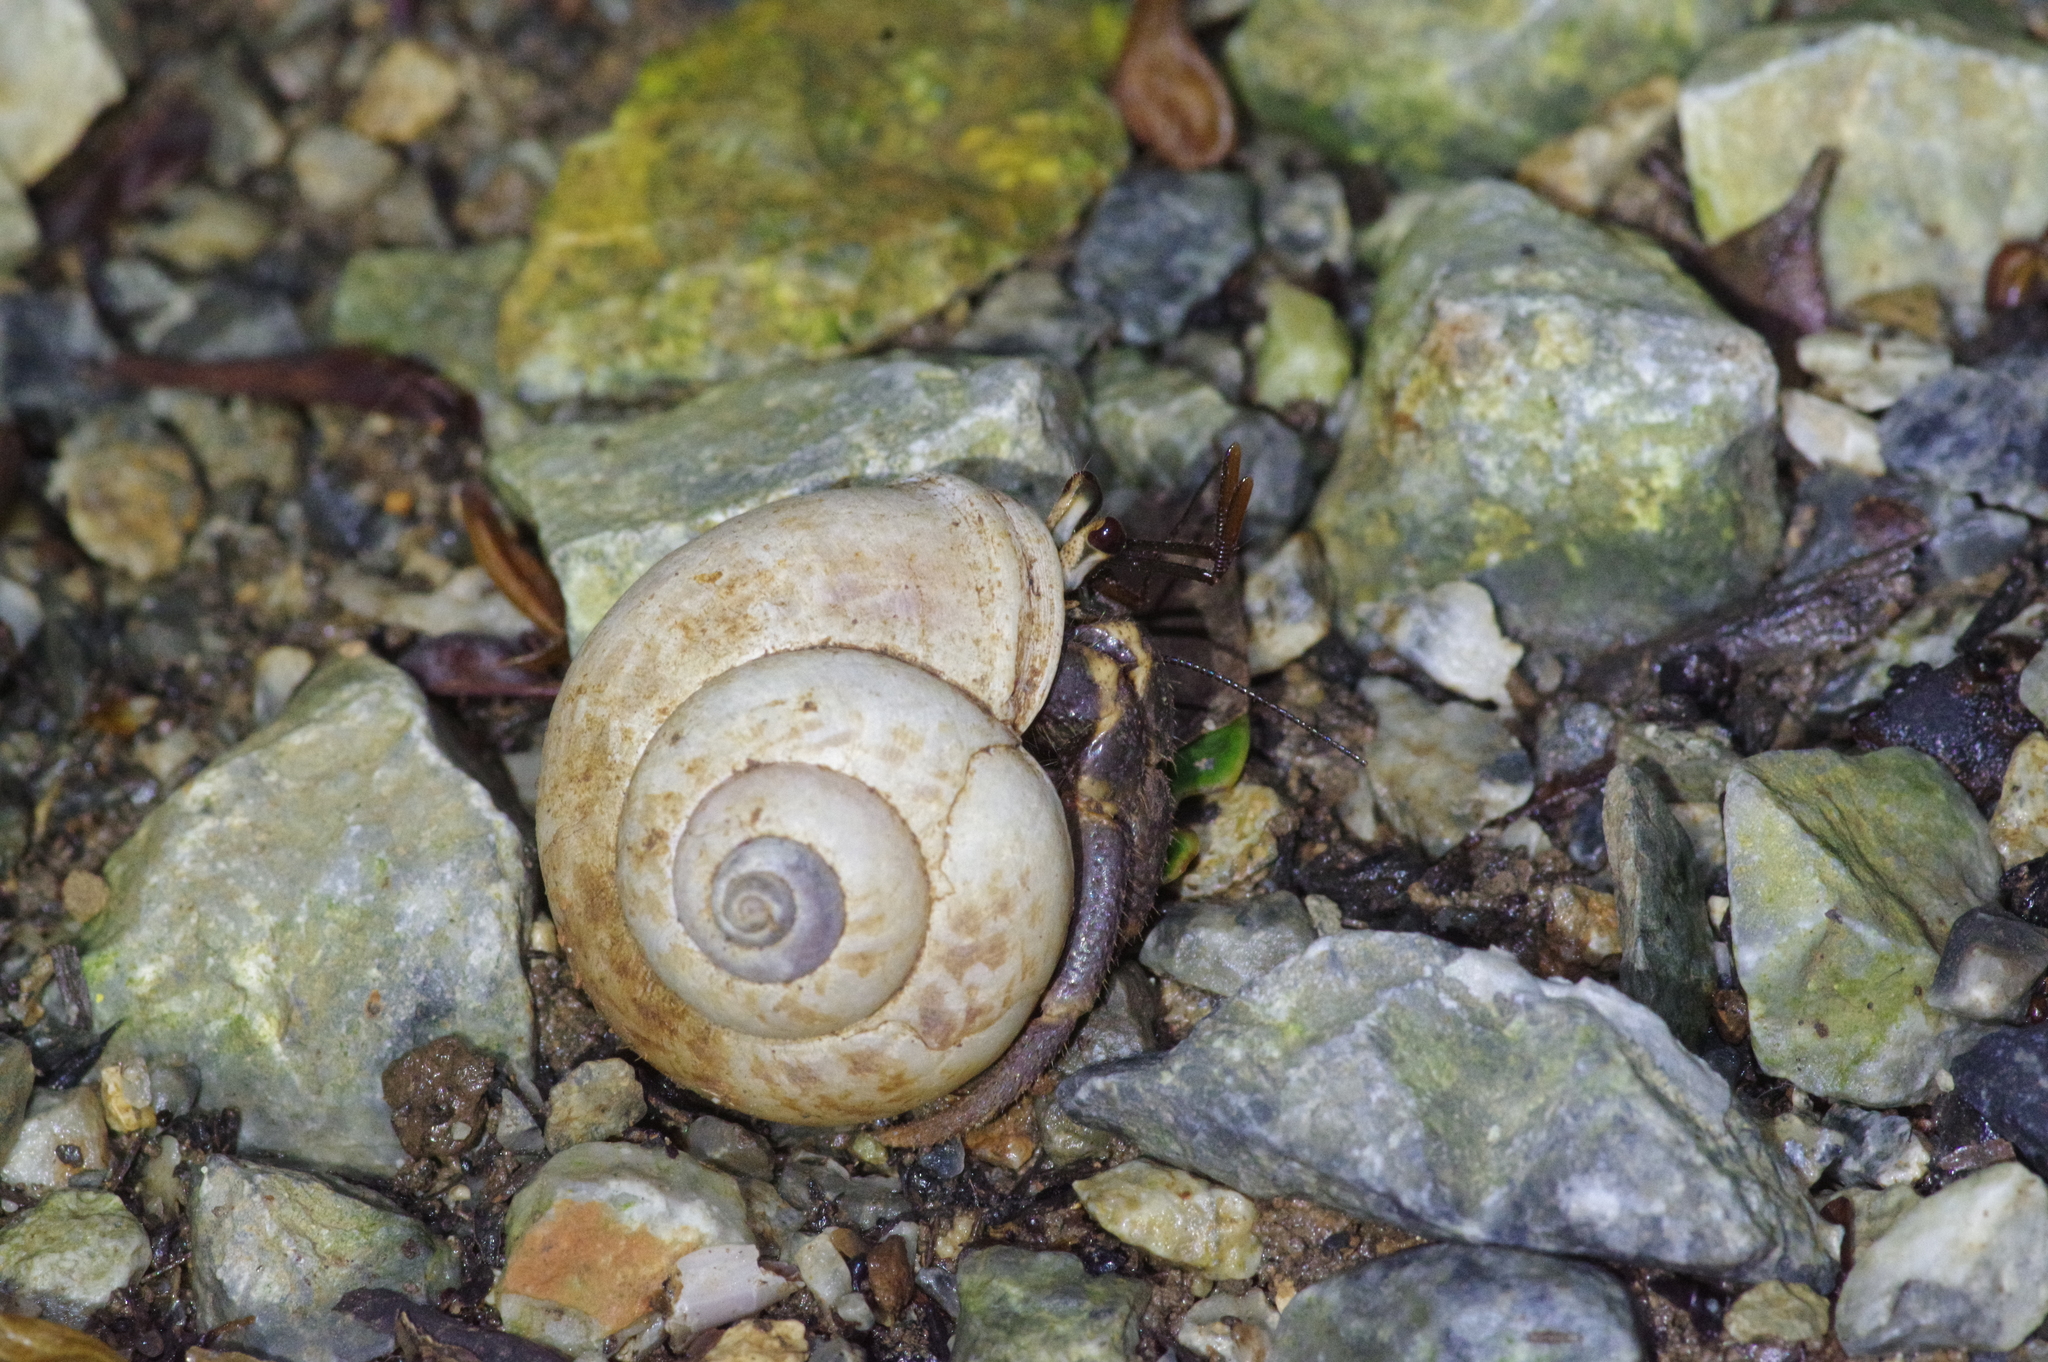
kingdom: Animalia
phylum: Arthropoda
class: Malacostraca
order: Decapoda
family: Coenobitidae
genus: Coenobita
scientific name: Coenobita cavipes
